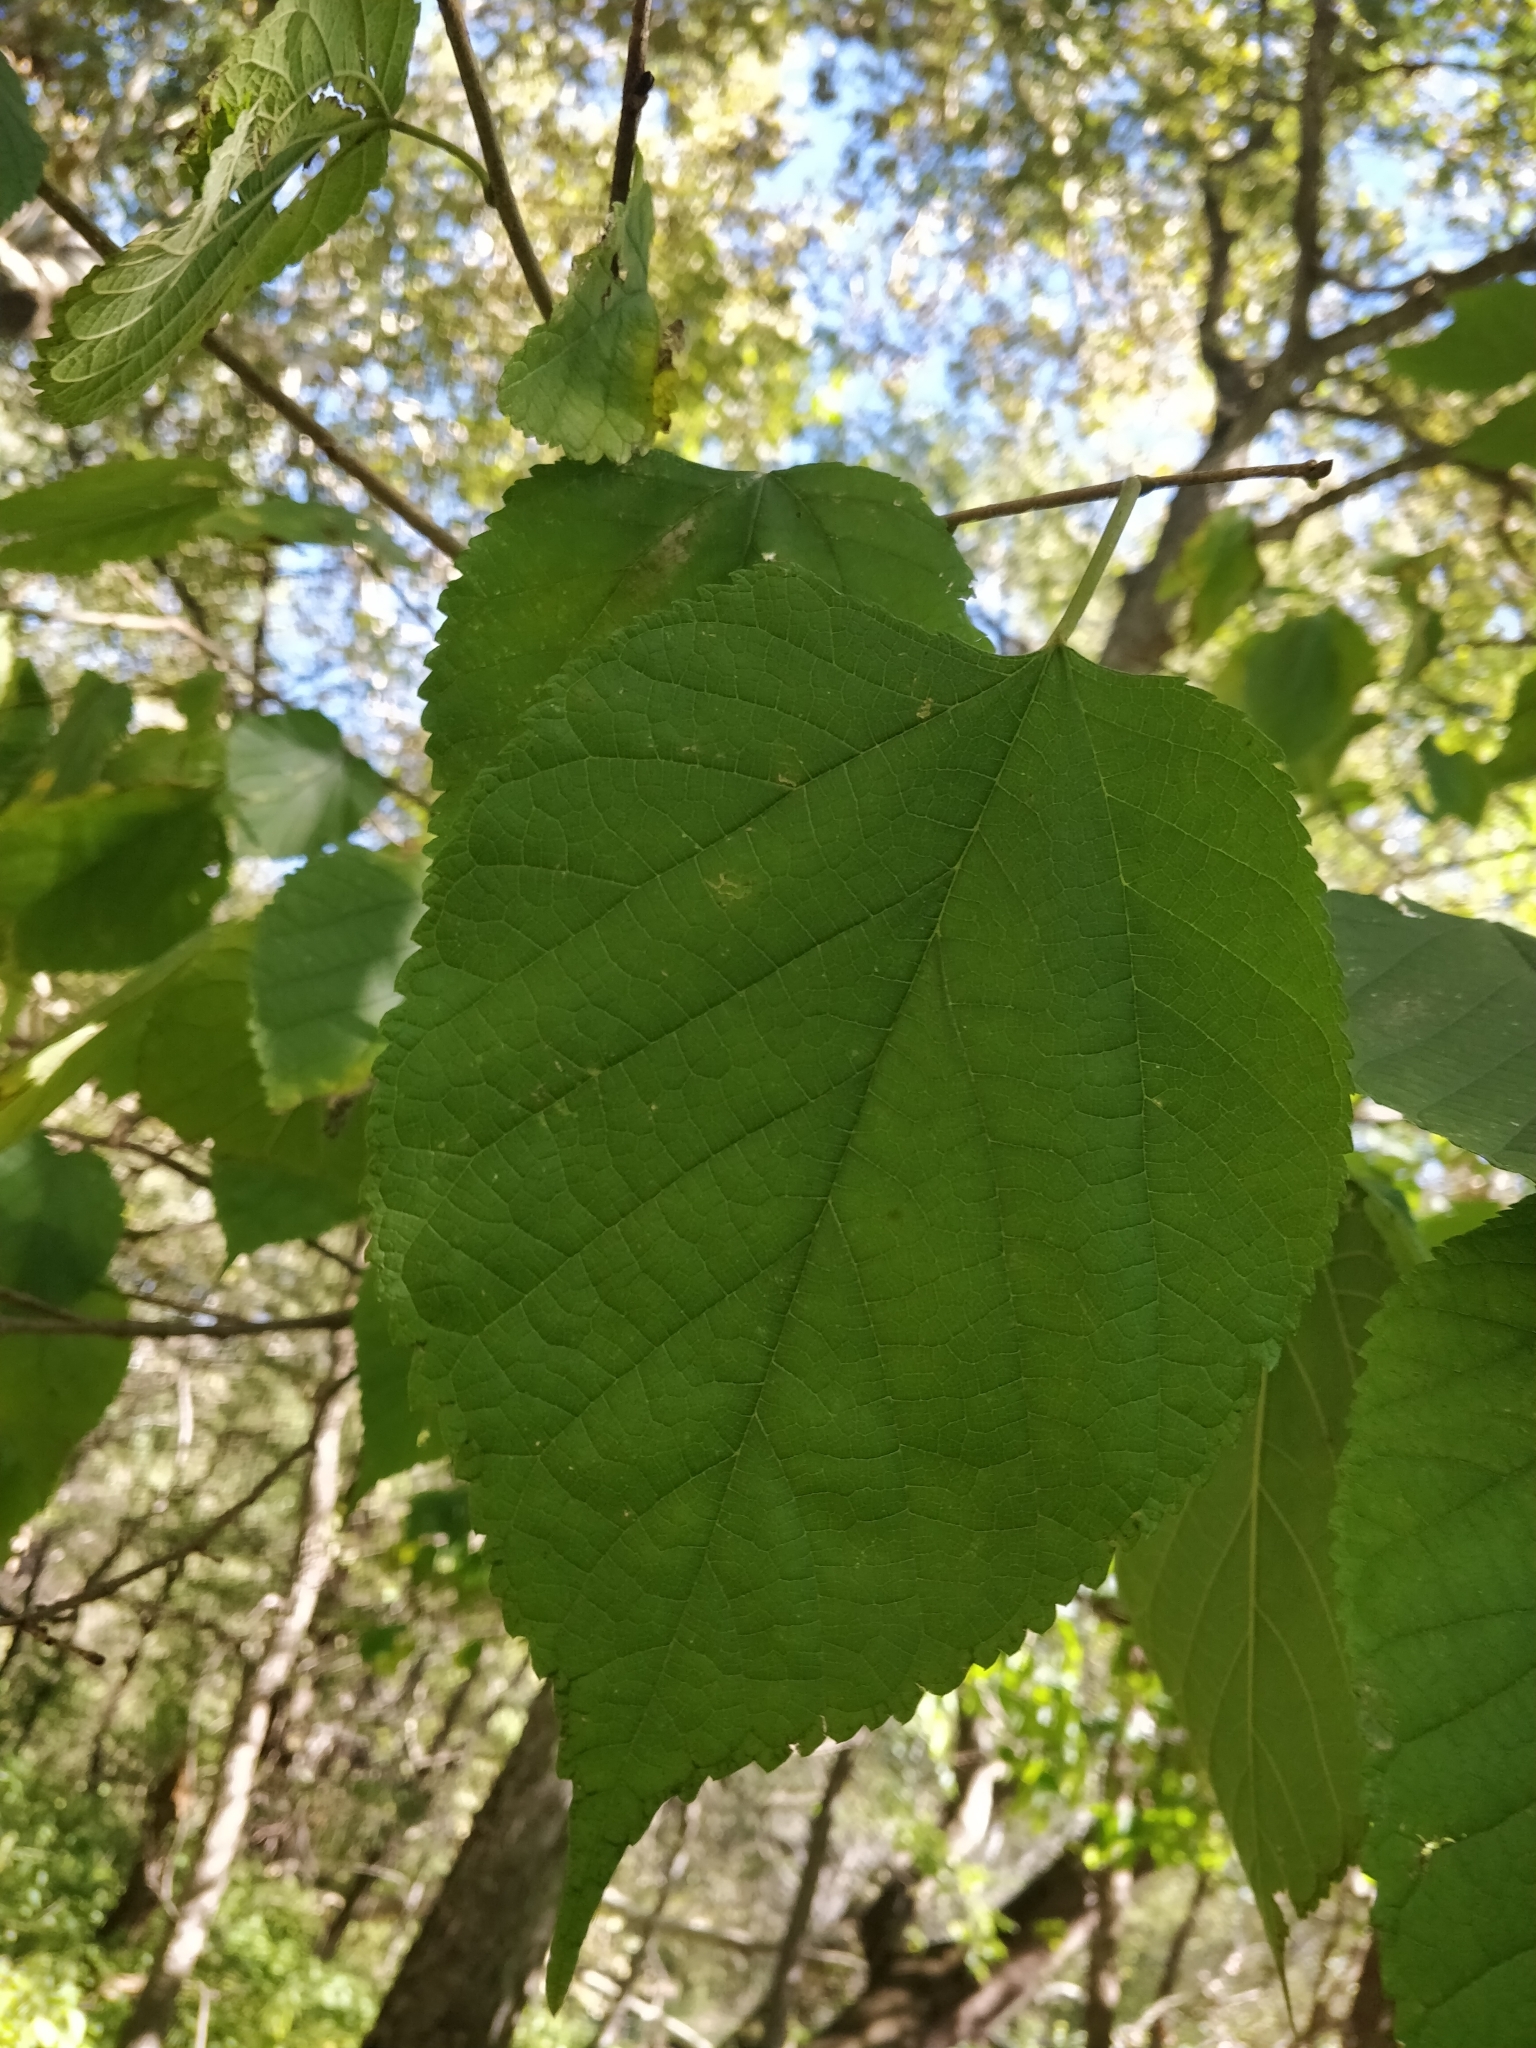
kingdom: Plantae
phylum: Tracheophyta
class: Magnoliopsida
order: Rosales
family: Moraceae
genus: Morus
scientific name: Morus rubra
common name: Red mulberry
